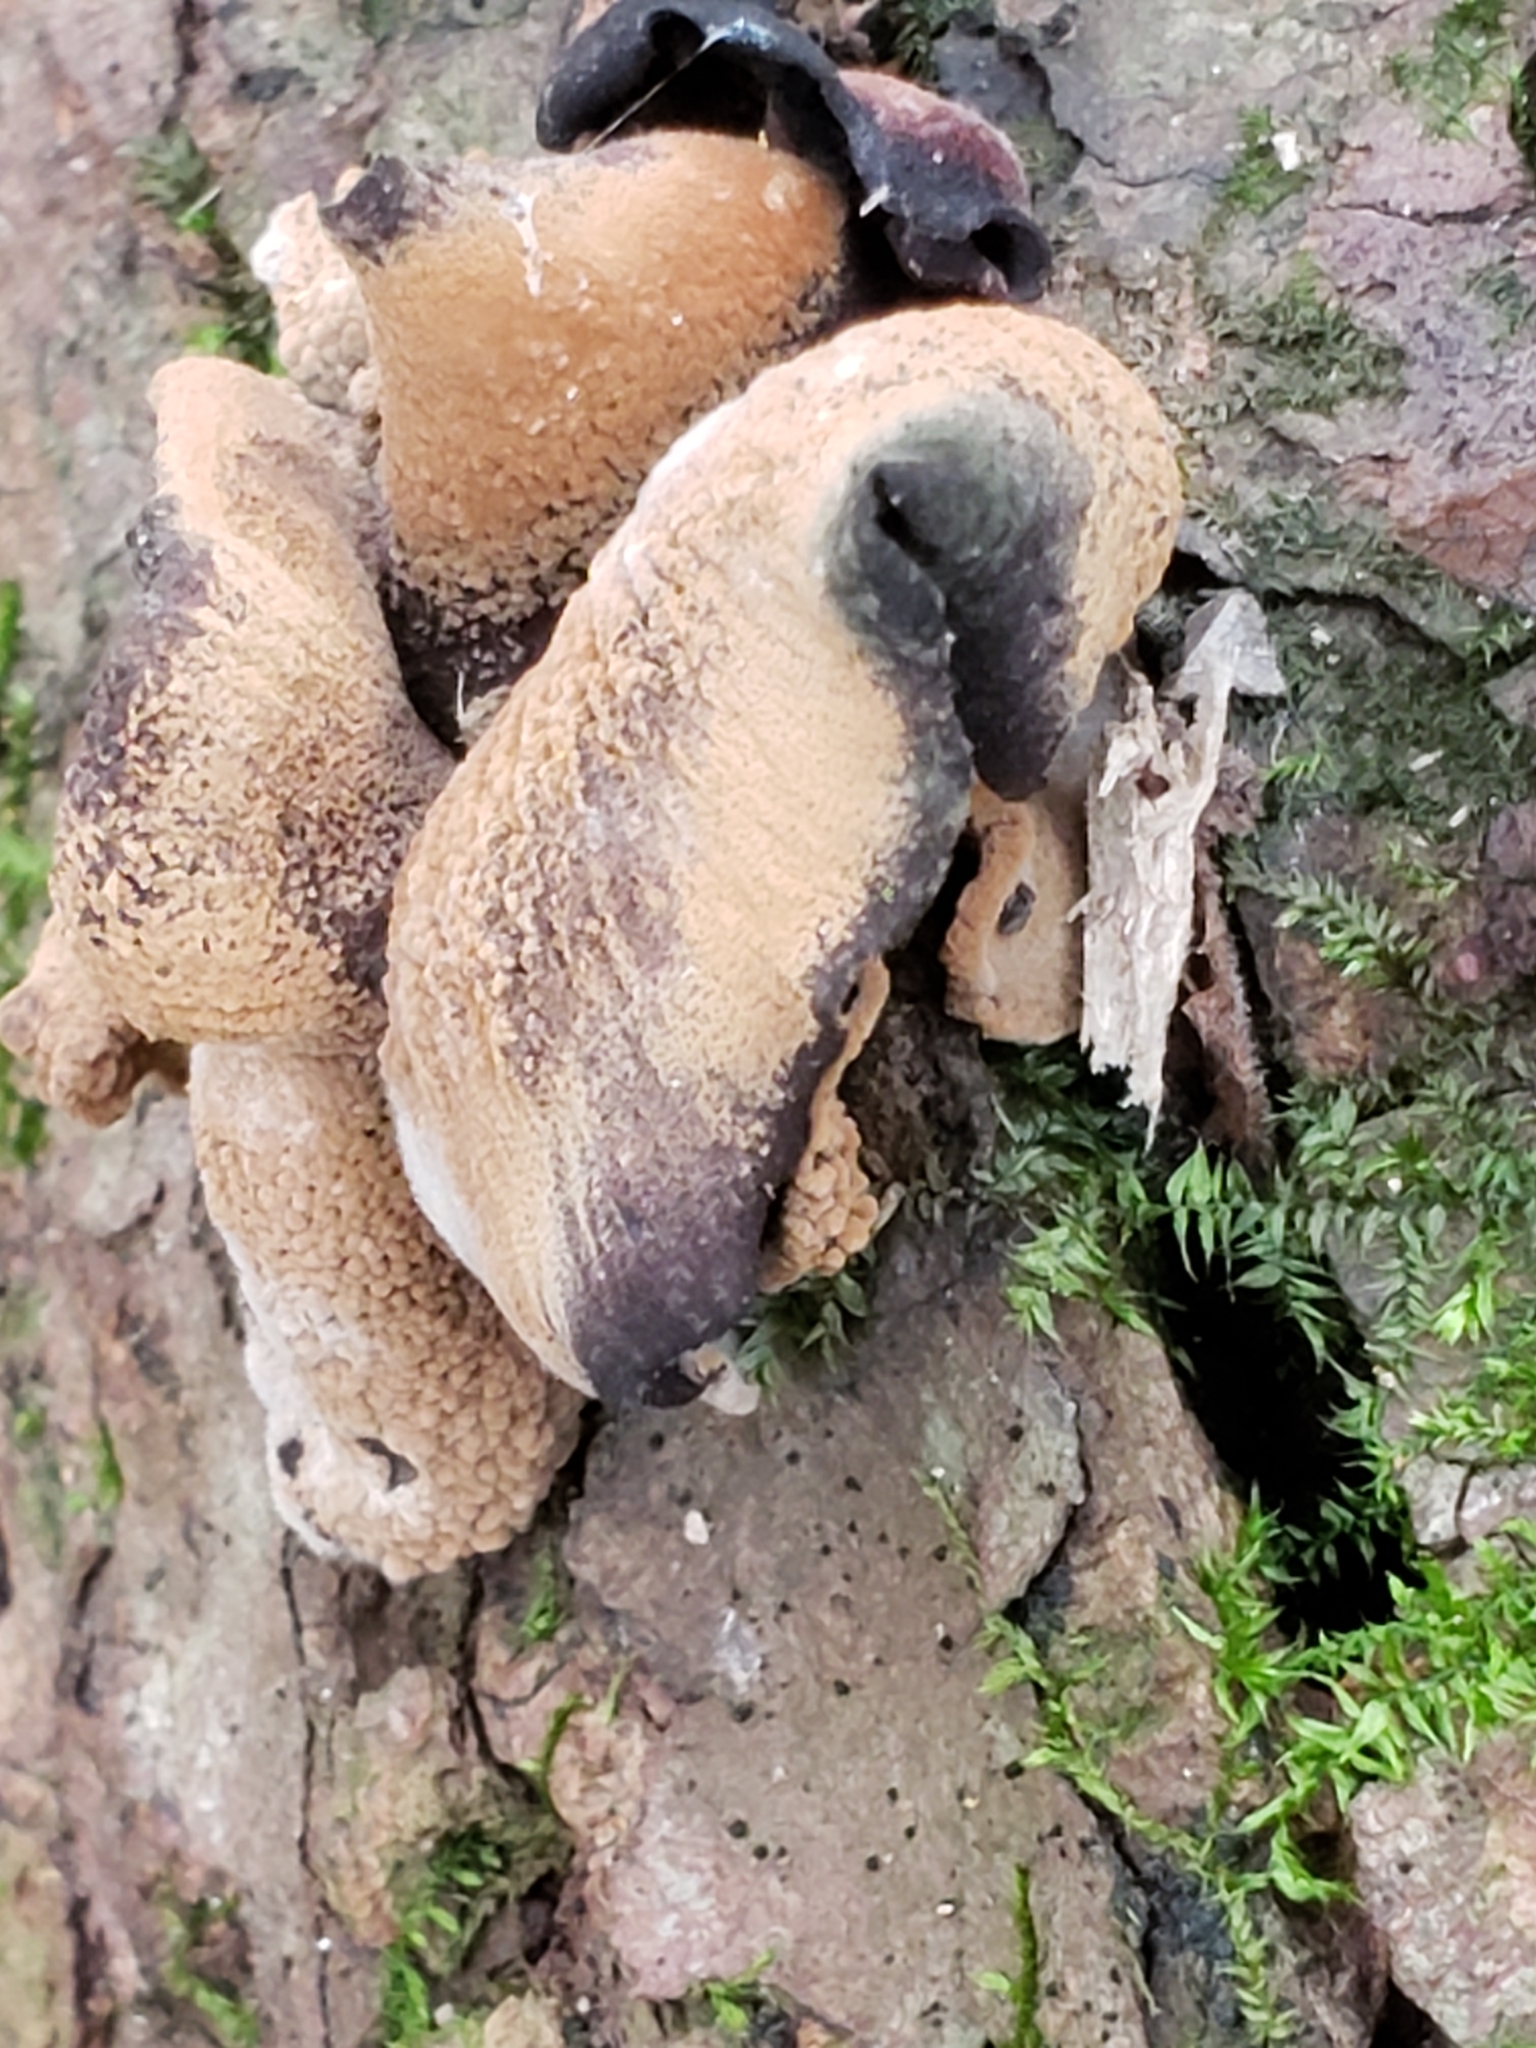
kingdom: Fungi
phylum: Ascomycota
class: Leotiomycetes
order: Helotiales
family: Cordieritidaceae
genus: Diplocarpa
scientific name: Diplocarpa irregularis
